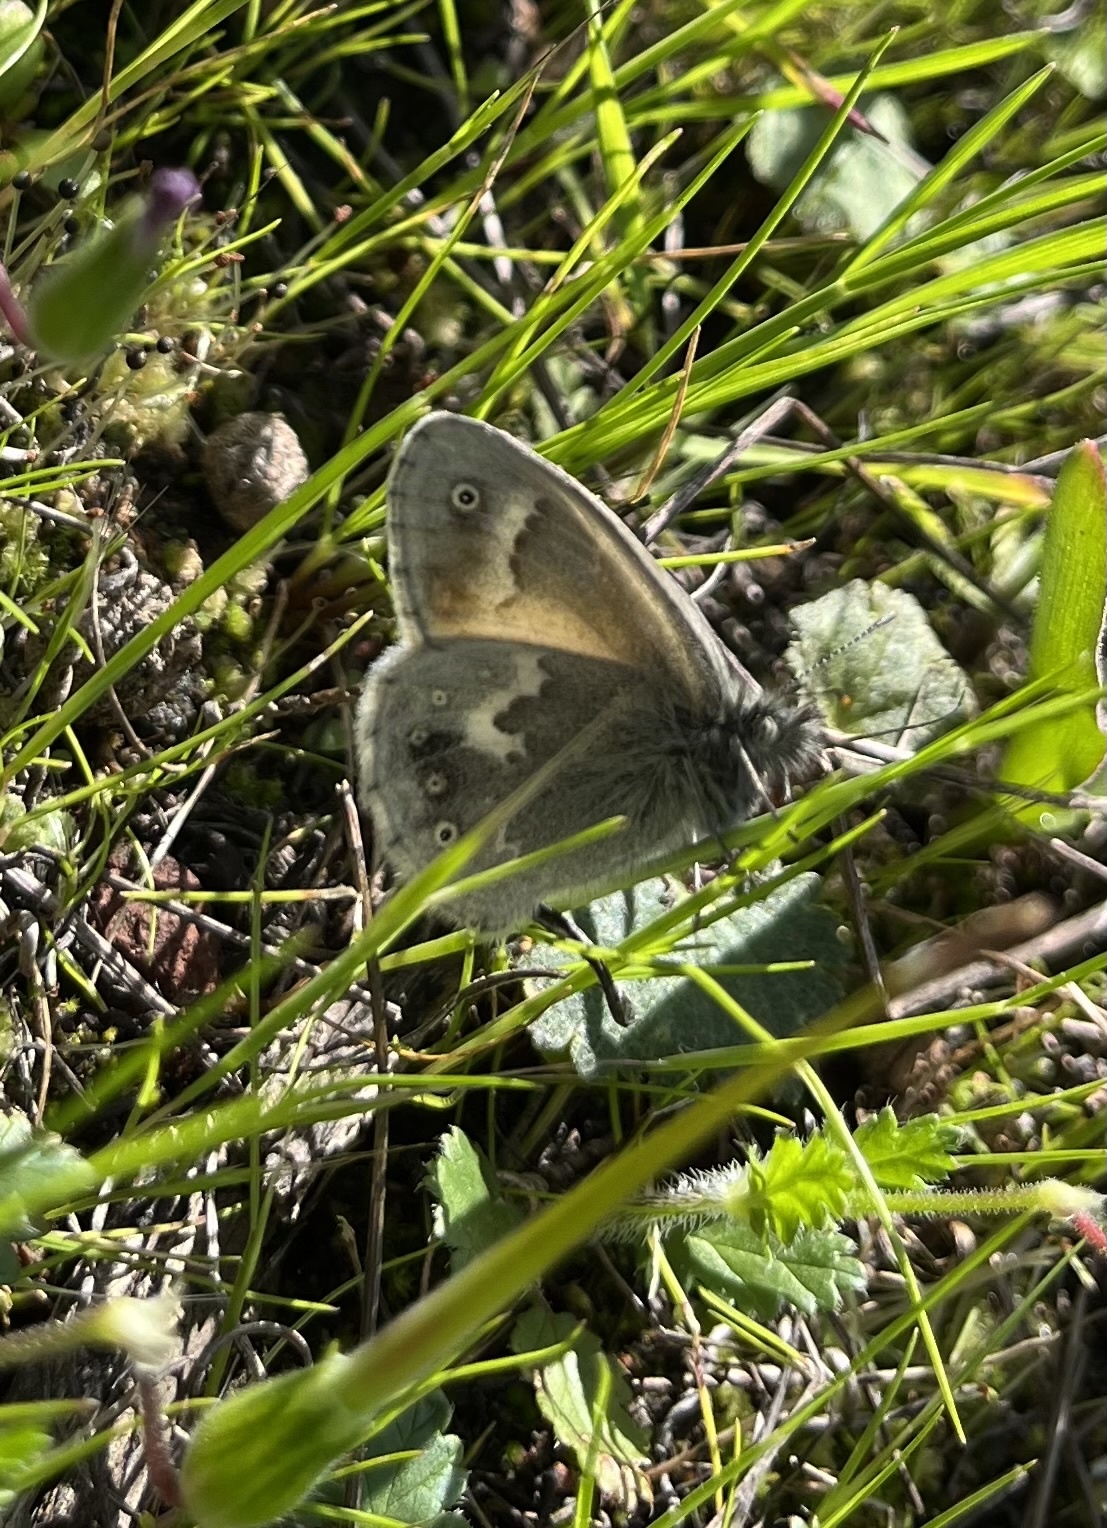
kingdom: Animalia
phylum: Arthropoda
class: Insecta
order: Lepidoptera
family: Nymphalidae
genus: Coenonympha
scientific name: Coenonympha california
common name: Common ringlet
